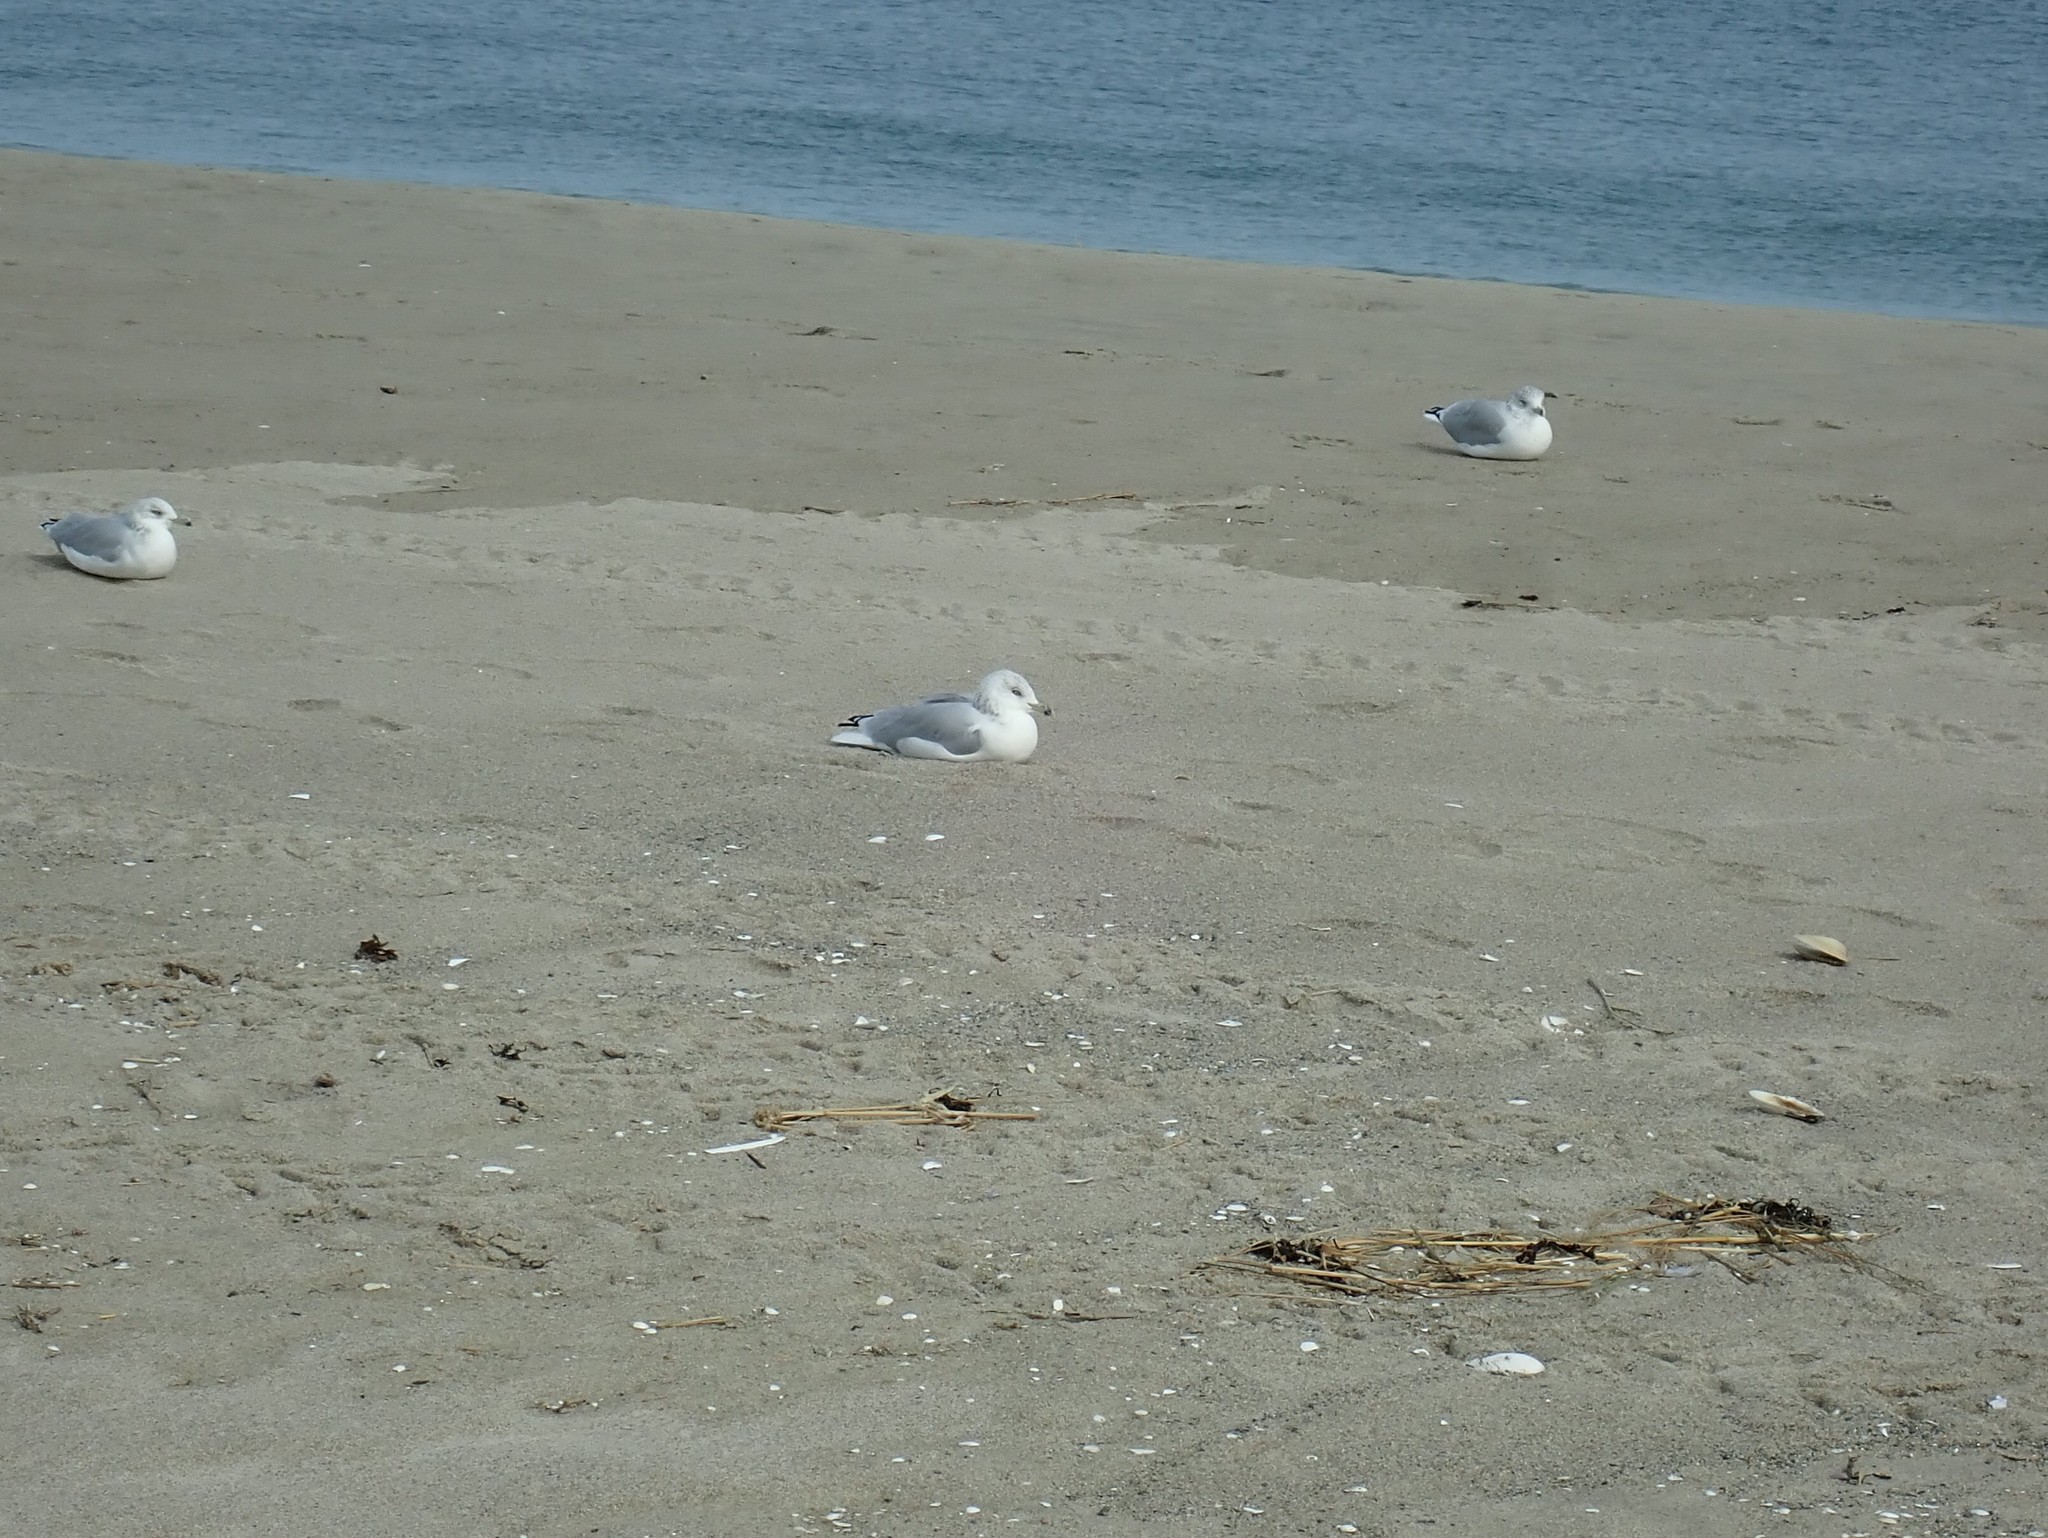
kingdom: Animalia
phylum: Chordata
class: Aves
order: Charadriiformes
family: Laridae
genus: Larus
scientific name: Larus delawarensis
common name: Ring-billed gull
